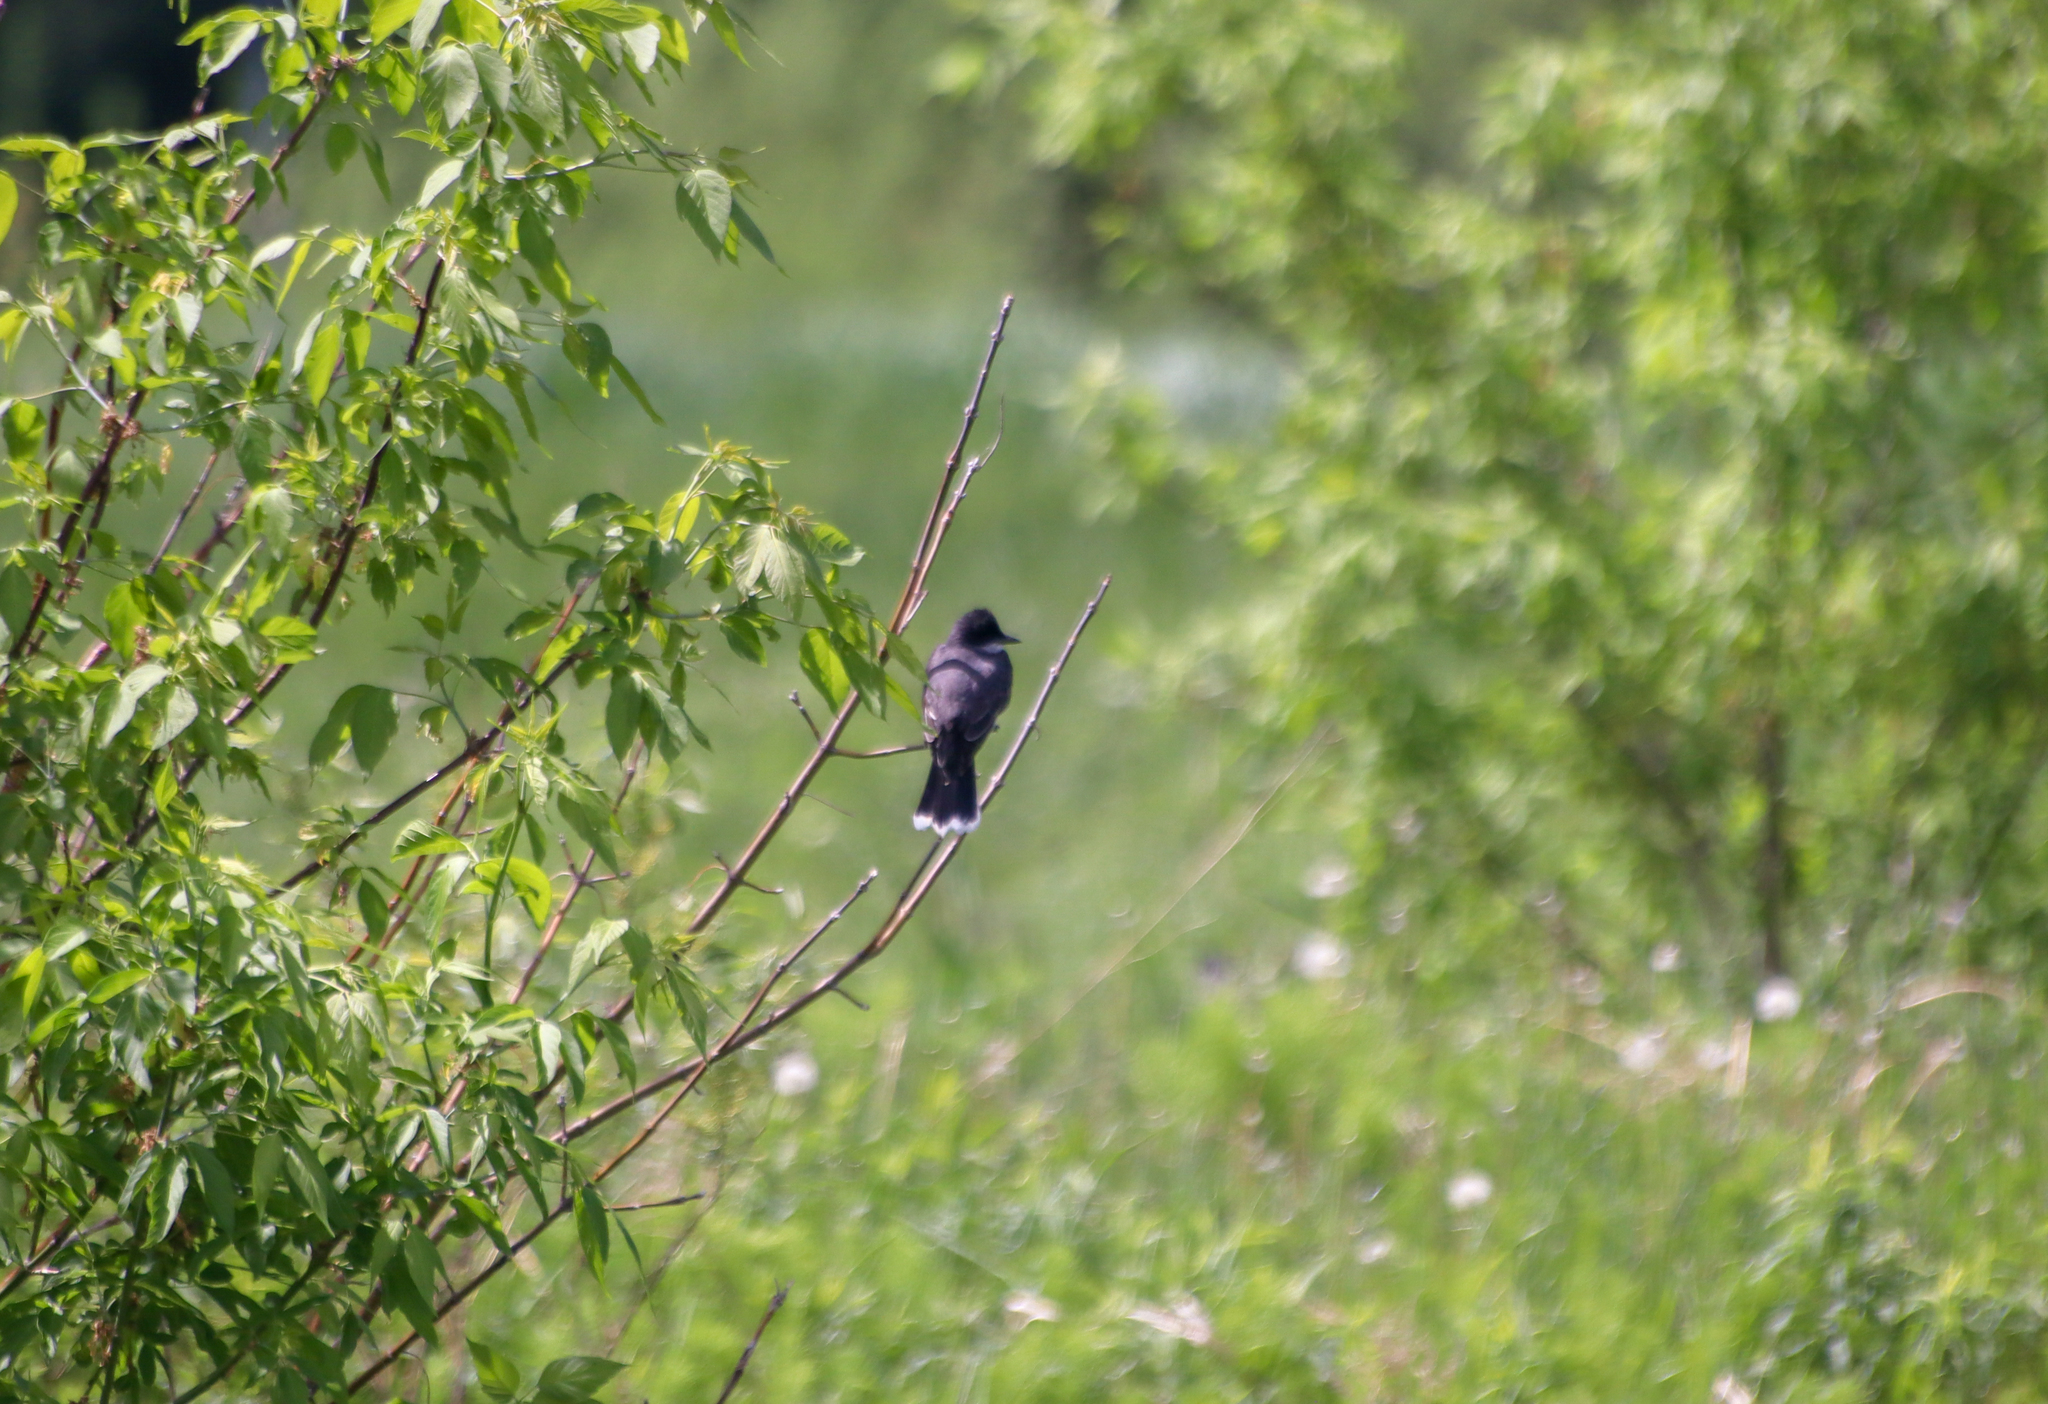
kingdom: Animalia
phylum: Chordata
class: Aves
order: Passeriformes
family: Tyrannidae
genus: Tyrannus
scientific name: Tyrannus tyrannus
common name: Eastern kingbird
